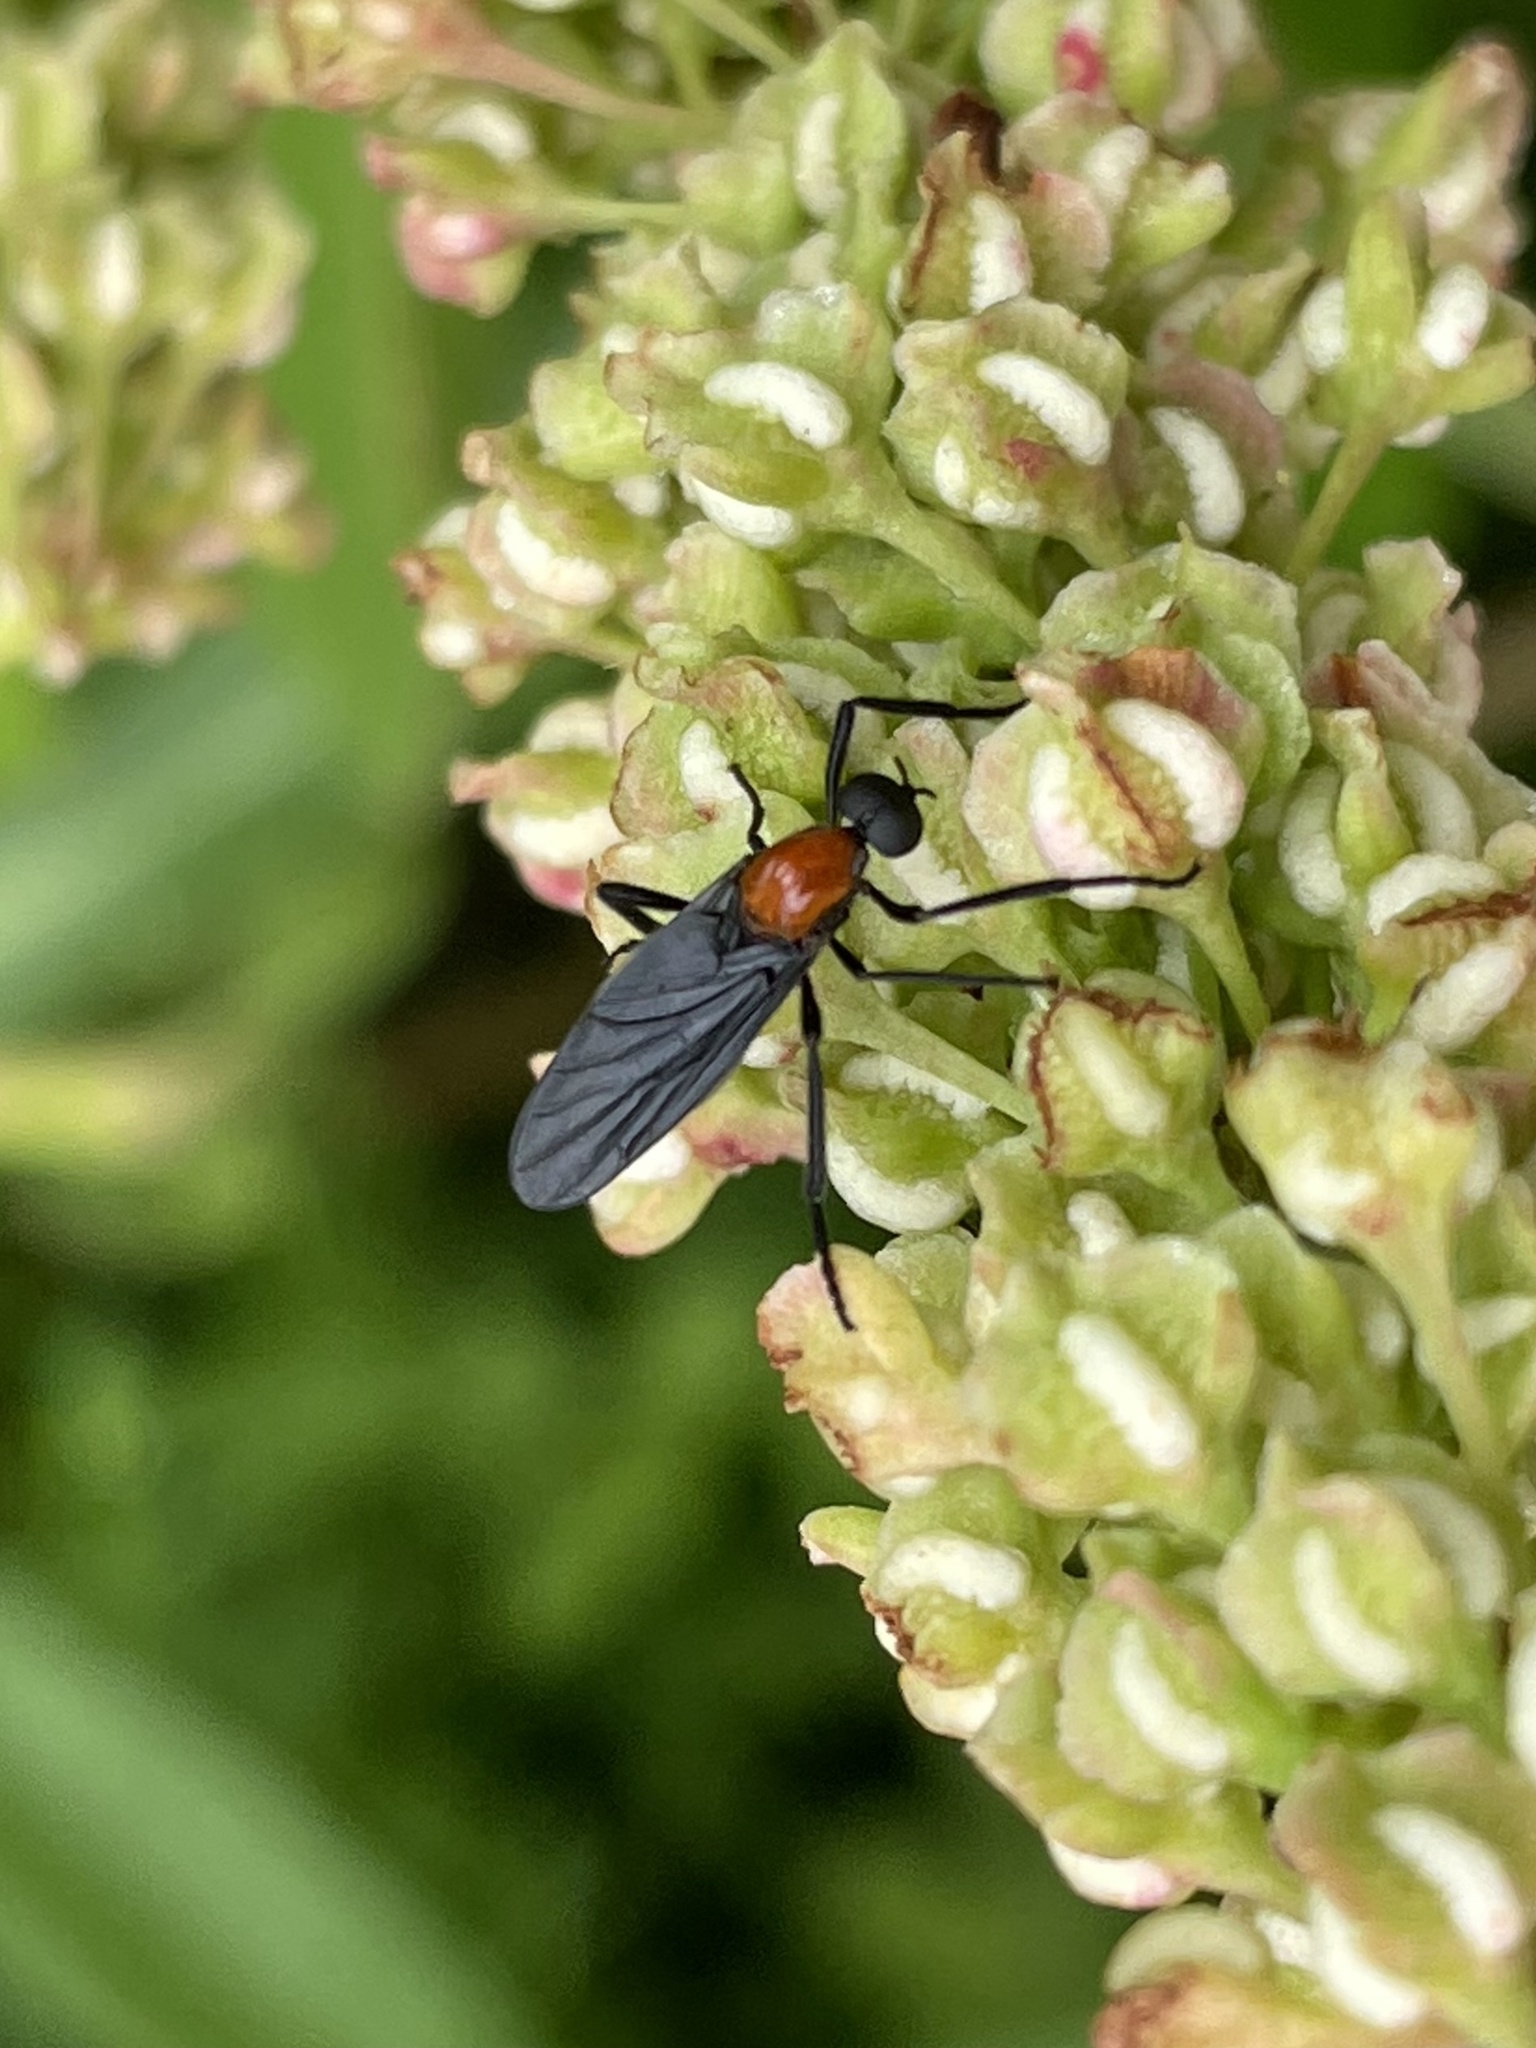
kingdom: Animalia
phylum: Arthropoda
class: Insecta
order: Diptera
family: Bibionidae
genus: Plecia
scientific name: Plecia nearctica
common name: March fly
